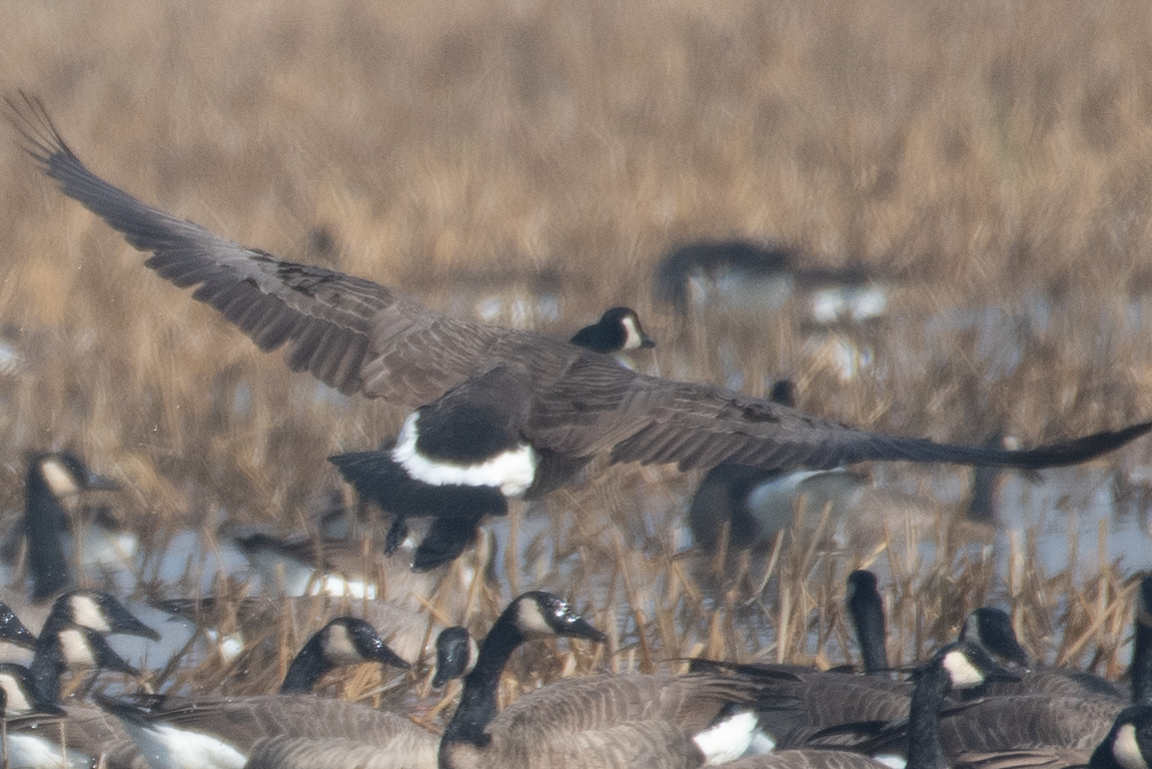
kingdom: Animalia
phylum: Chordata
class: Aves
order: Anseriformes
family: Anatidae
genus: Branta
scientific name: Branta canadensis
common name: Canada goose
